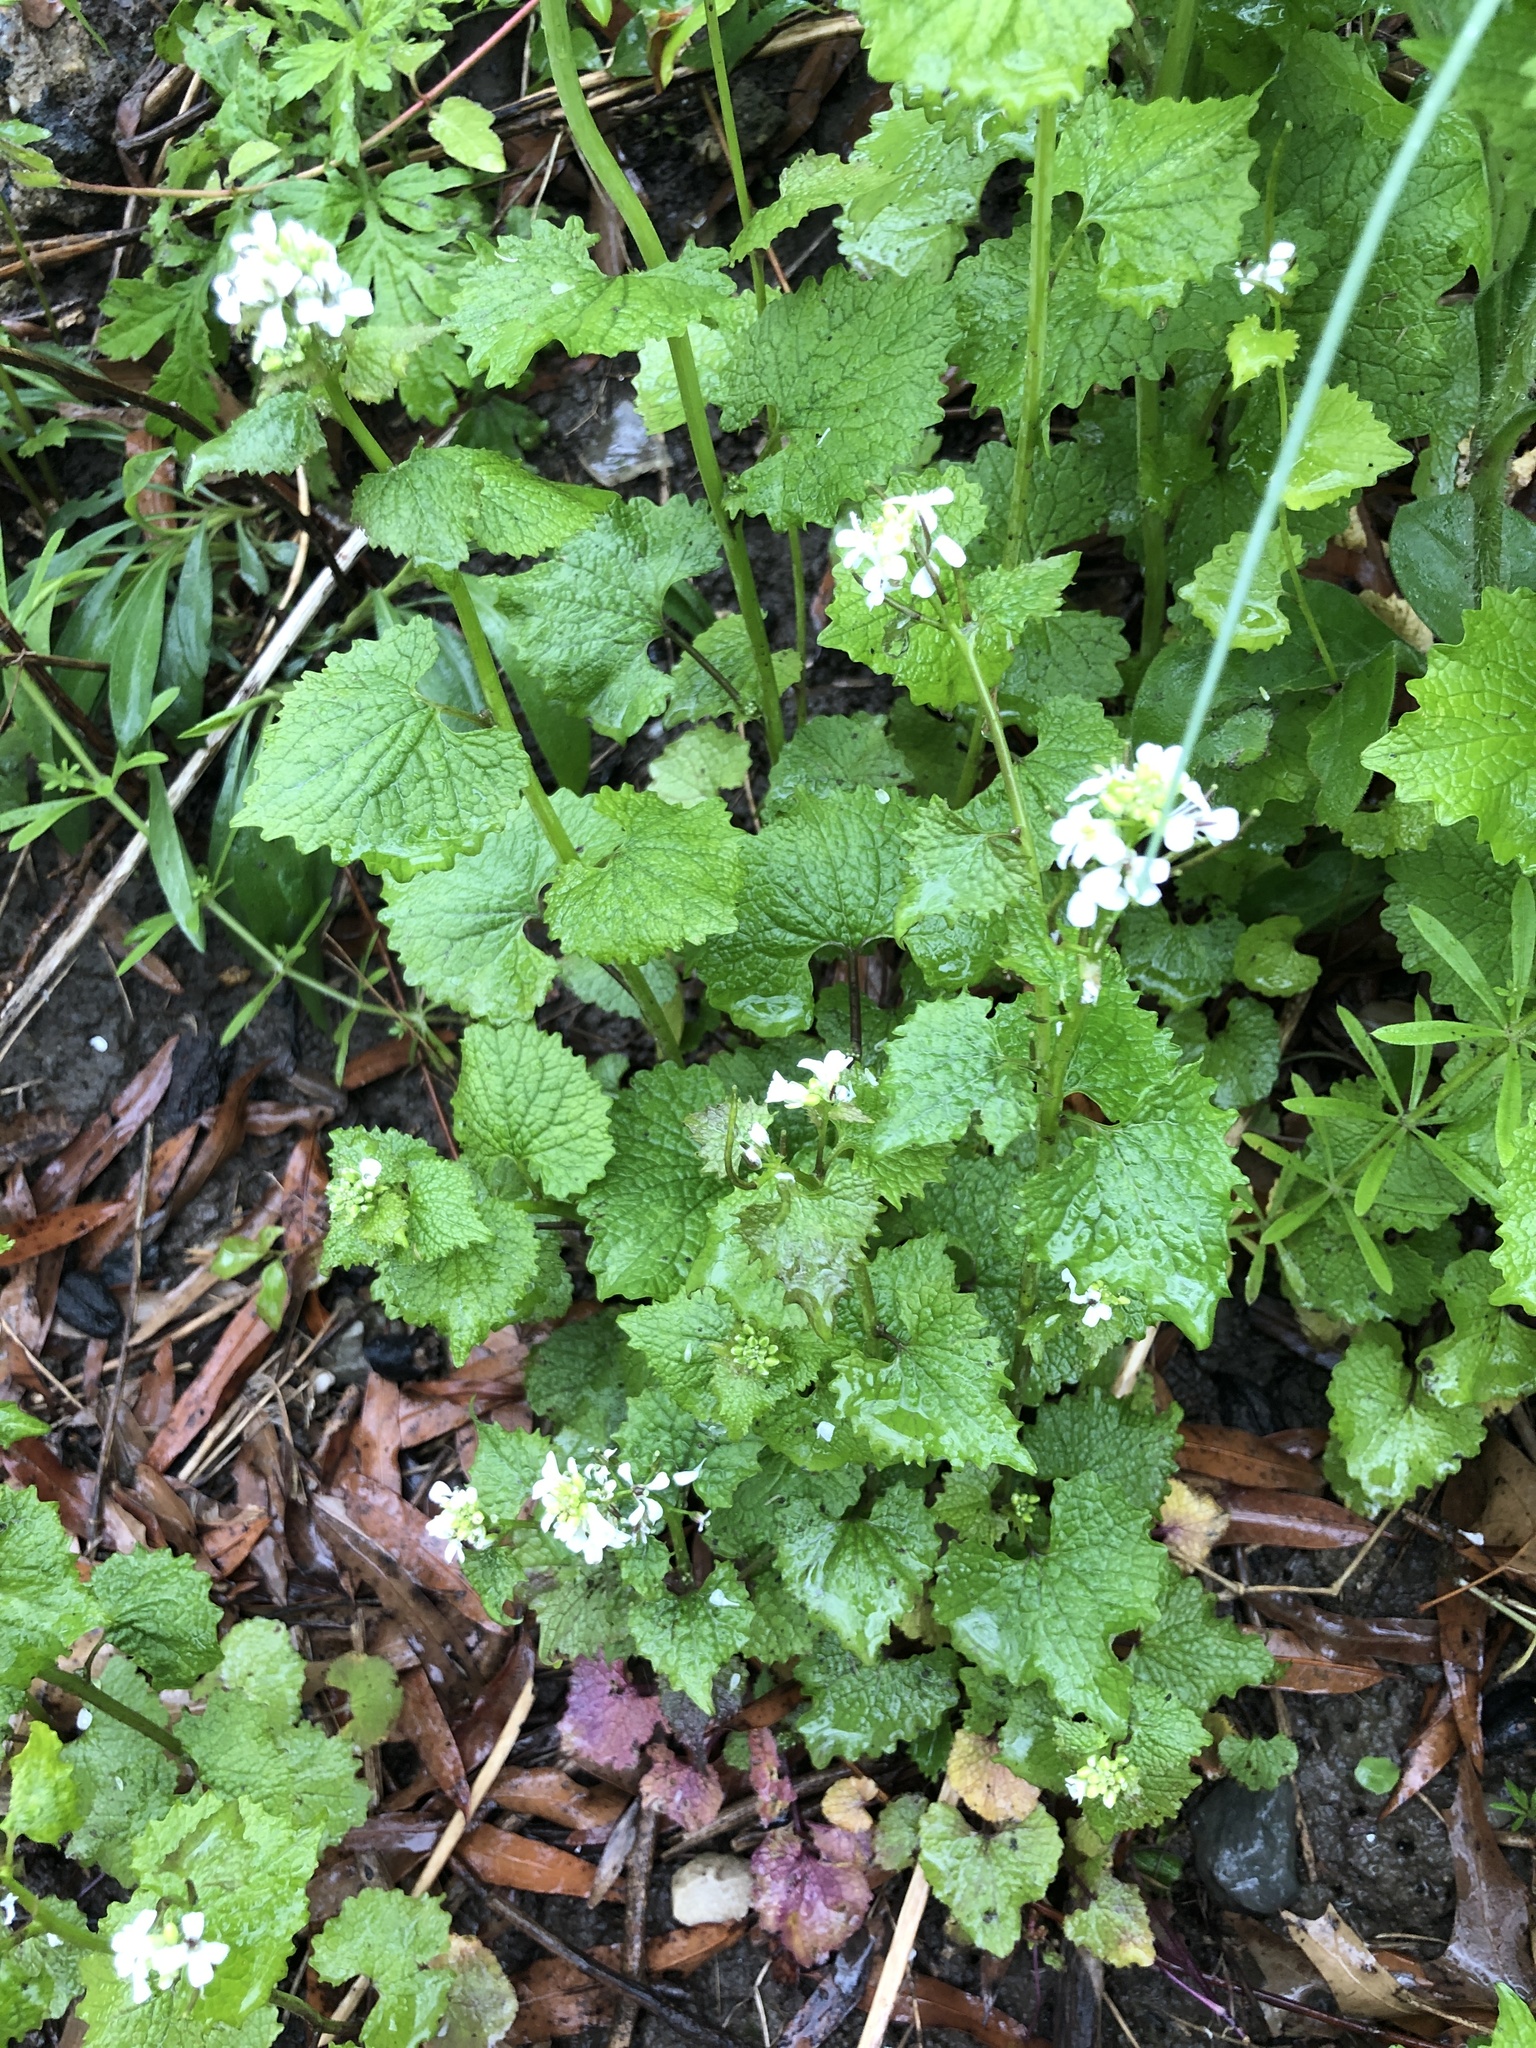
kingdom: Plantae
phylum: Tracheophyta
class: Magnoliopsida
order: Brassicales
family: Brassicaceae
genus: Alliaria
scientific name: Alliaria petiolata
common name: Garlic mustard
